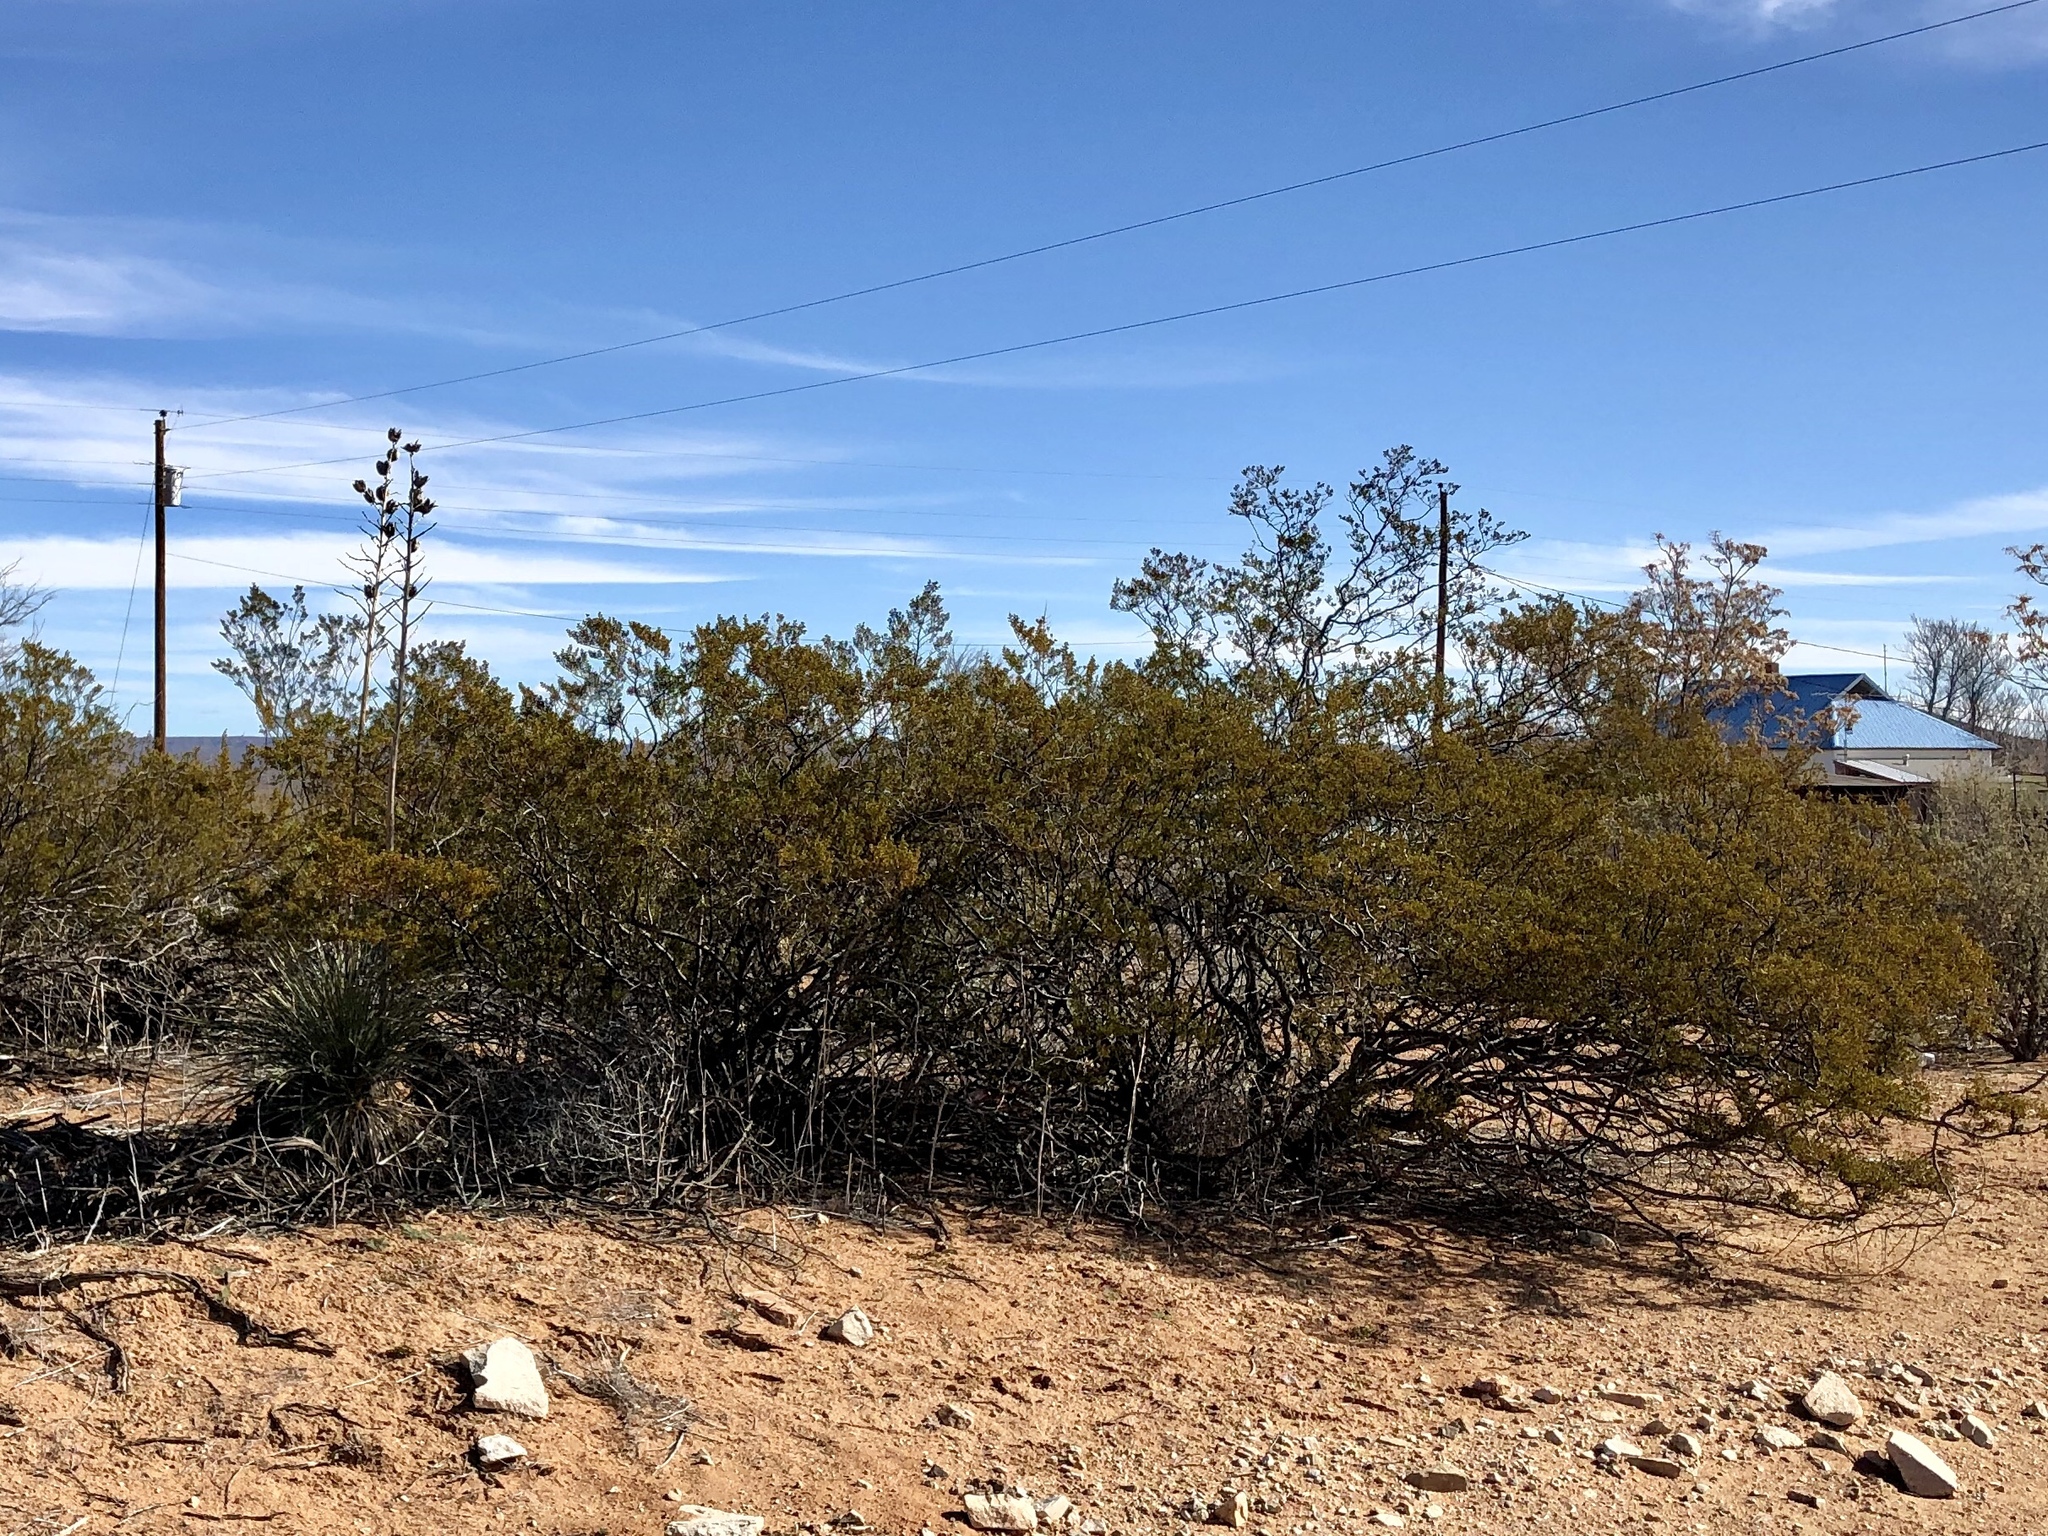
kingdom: Plantae
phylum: Tracheophyta
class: Magnoliopsida
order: Zygophyllales
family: Zygophyllaceae
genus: Larrea
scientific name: Larrea tridentata
